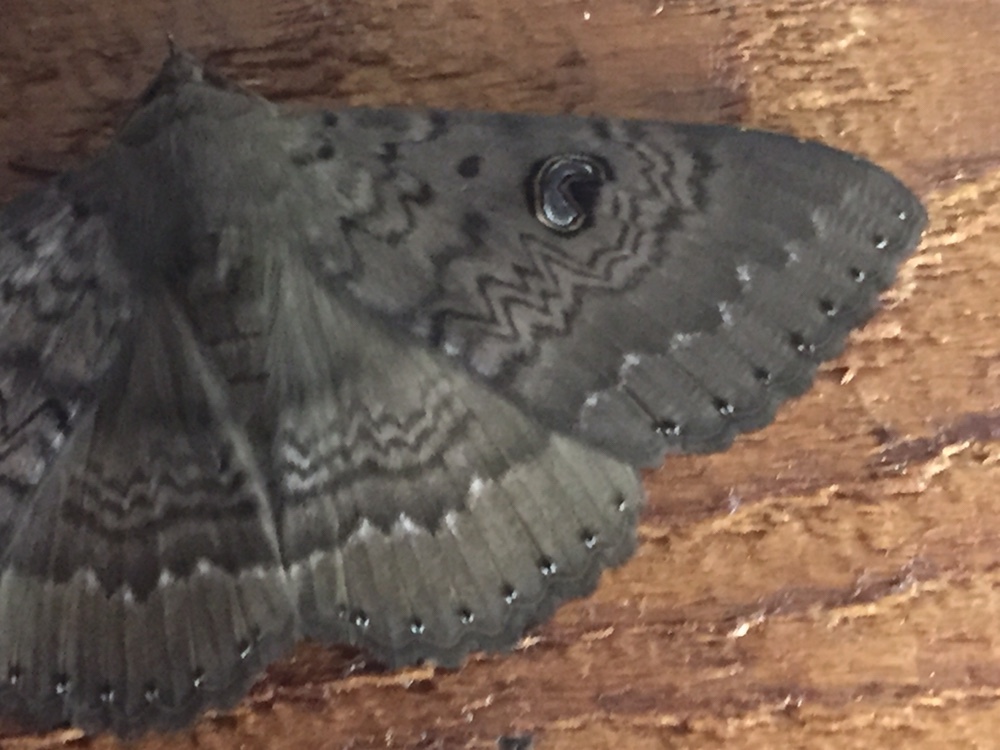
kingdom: Animalia
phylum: Arthropoda
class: Insecta
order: Lepidoptera
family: Erebidae
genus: Dasypodia
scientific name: Dasypodia cymatodes
